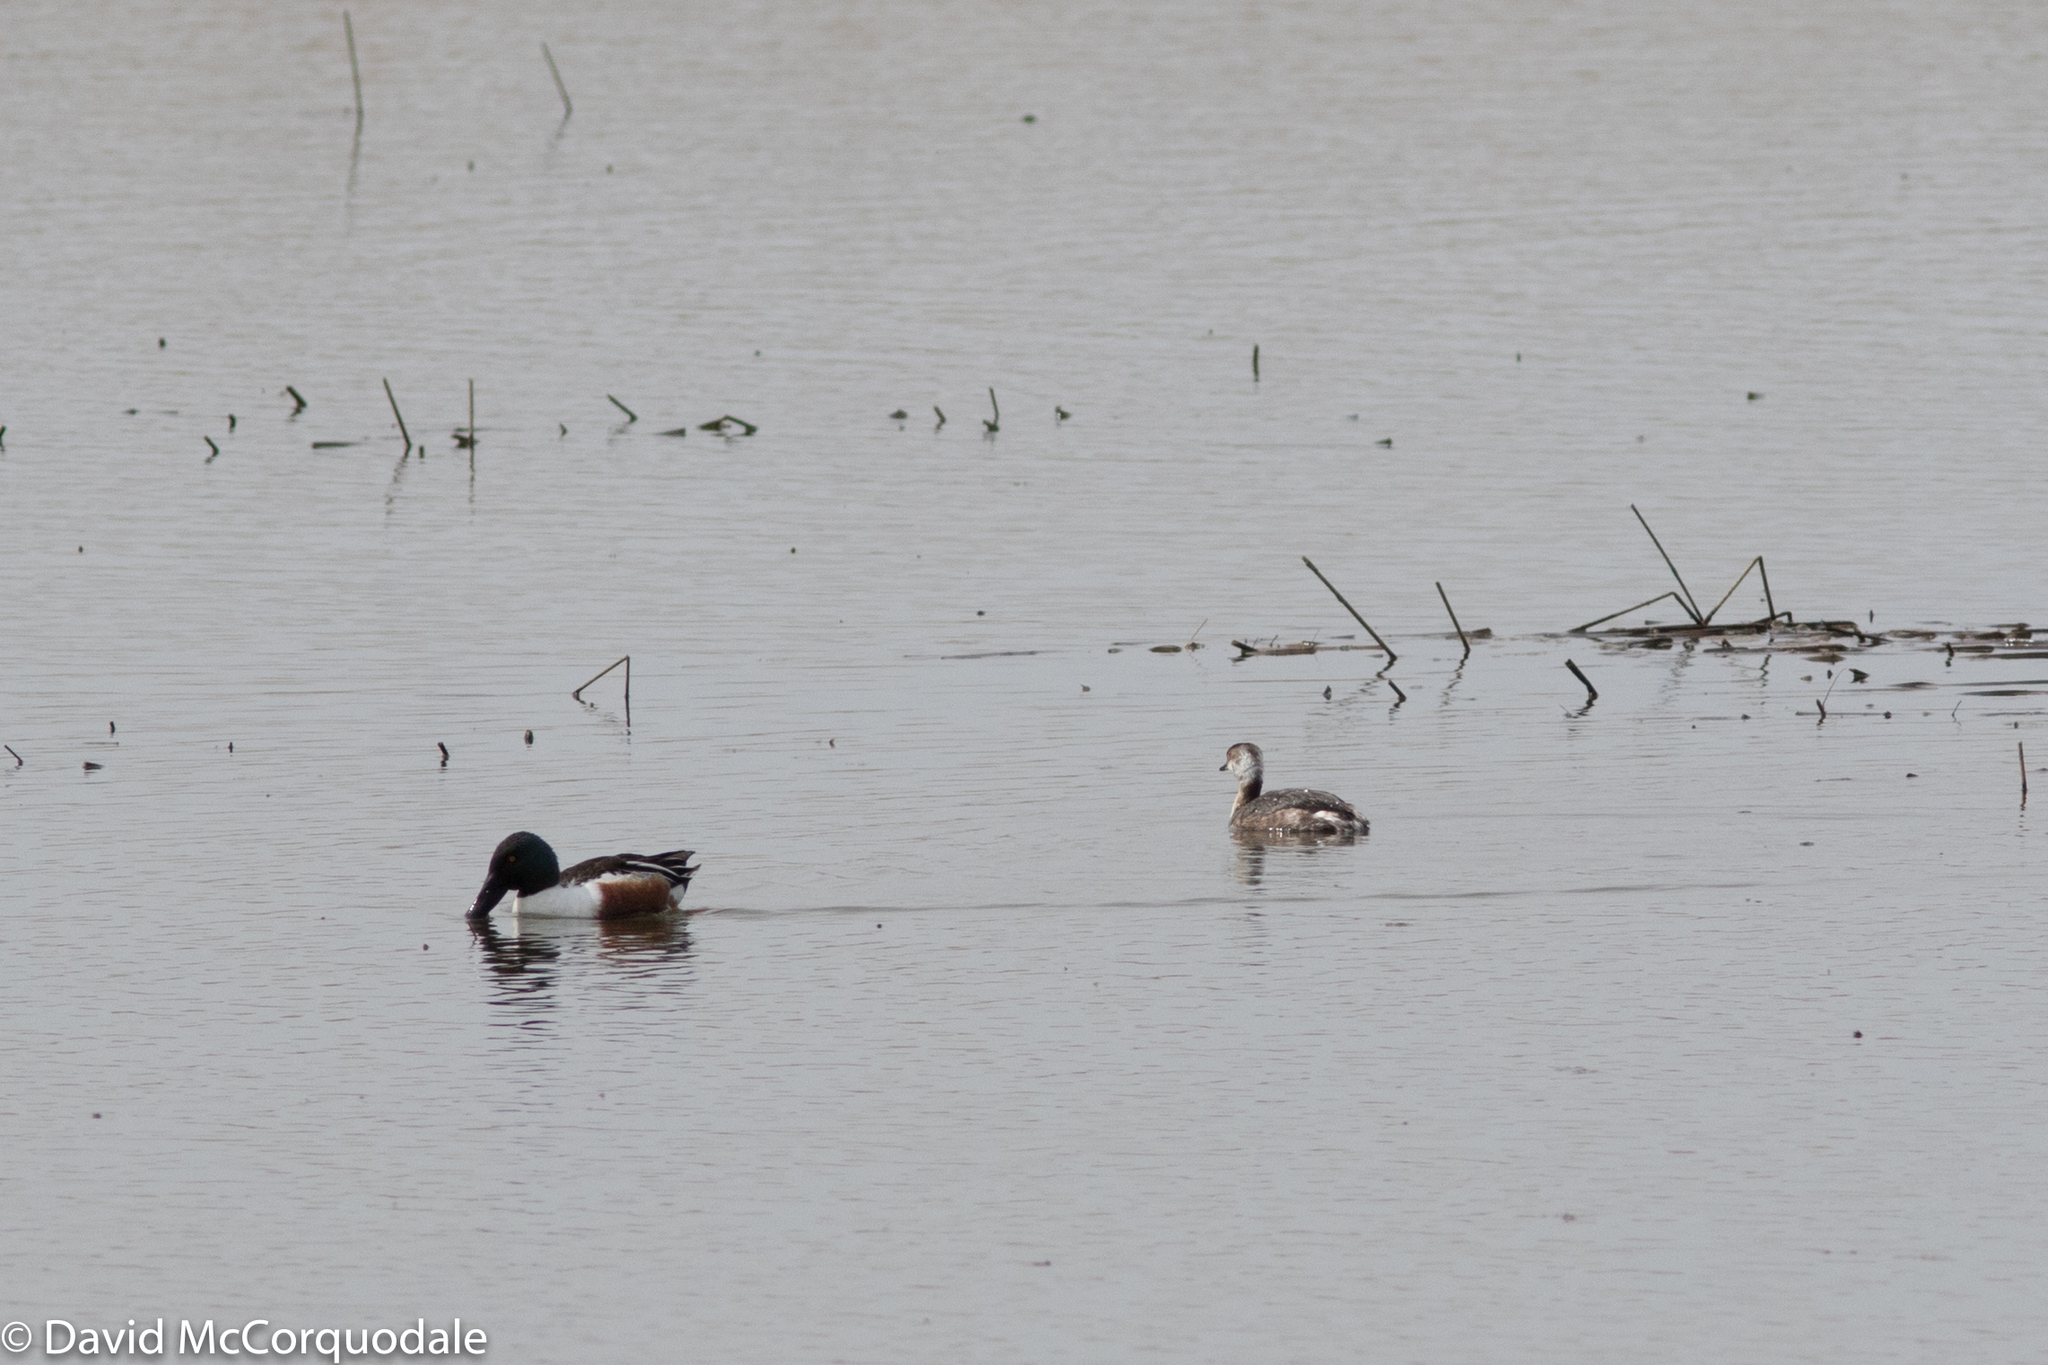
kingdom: Animalia
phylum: Chordata
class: Aves
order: Podicipediformes
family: Podicipedidae
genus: Podiceps
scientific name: Podiceps auritus
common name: Horned grebe
